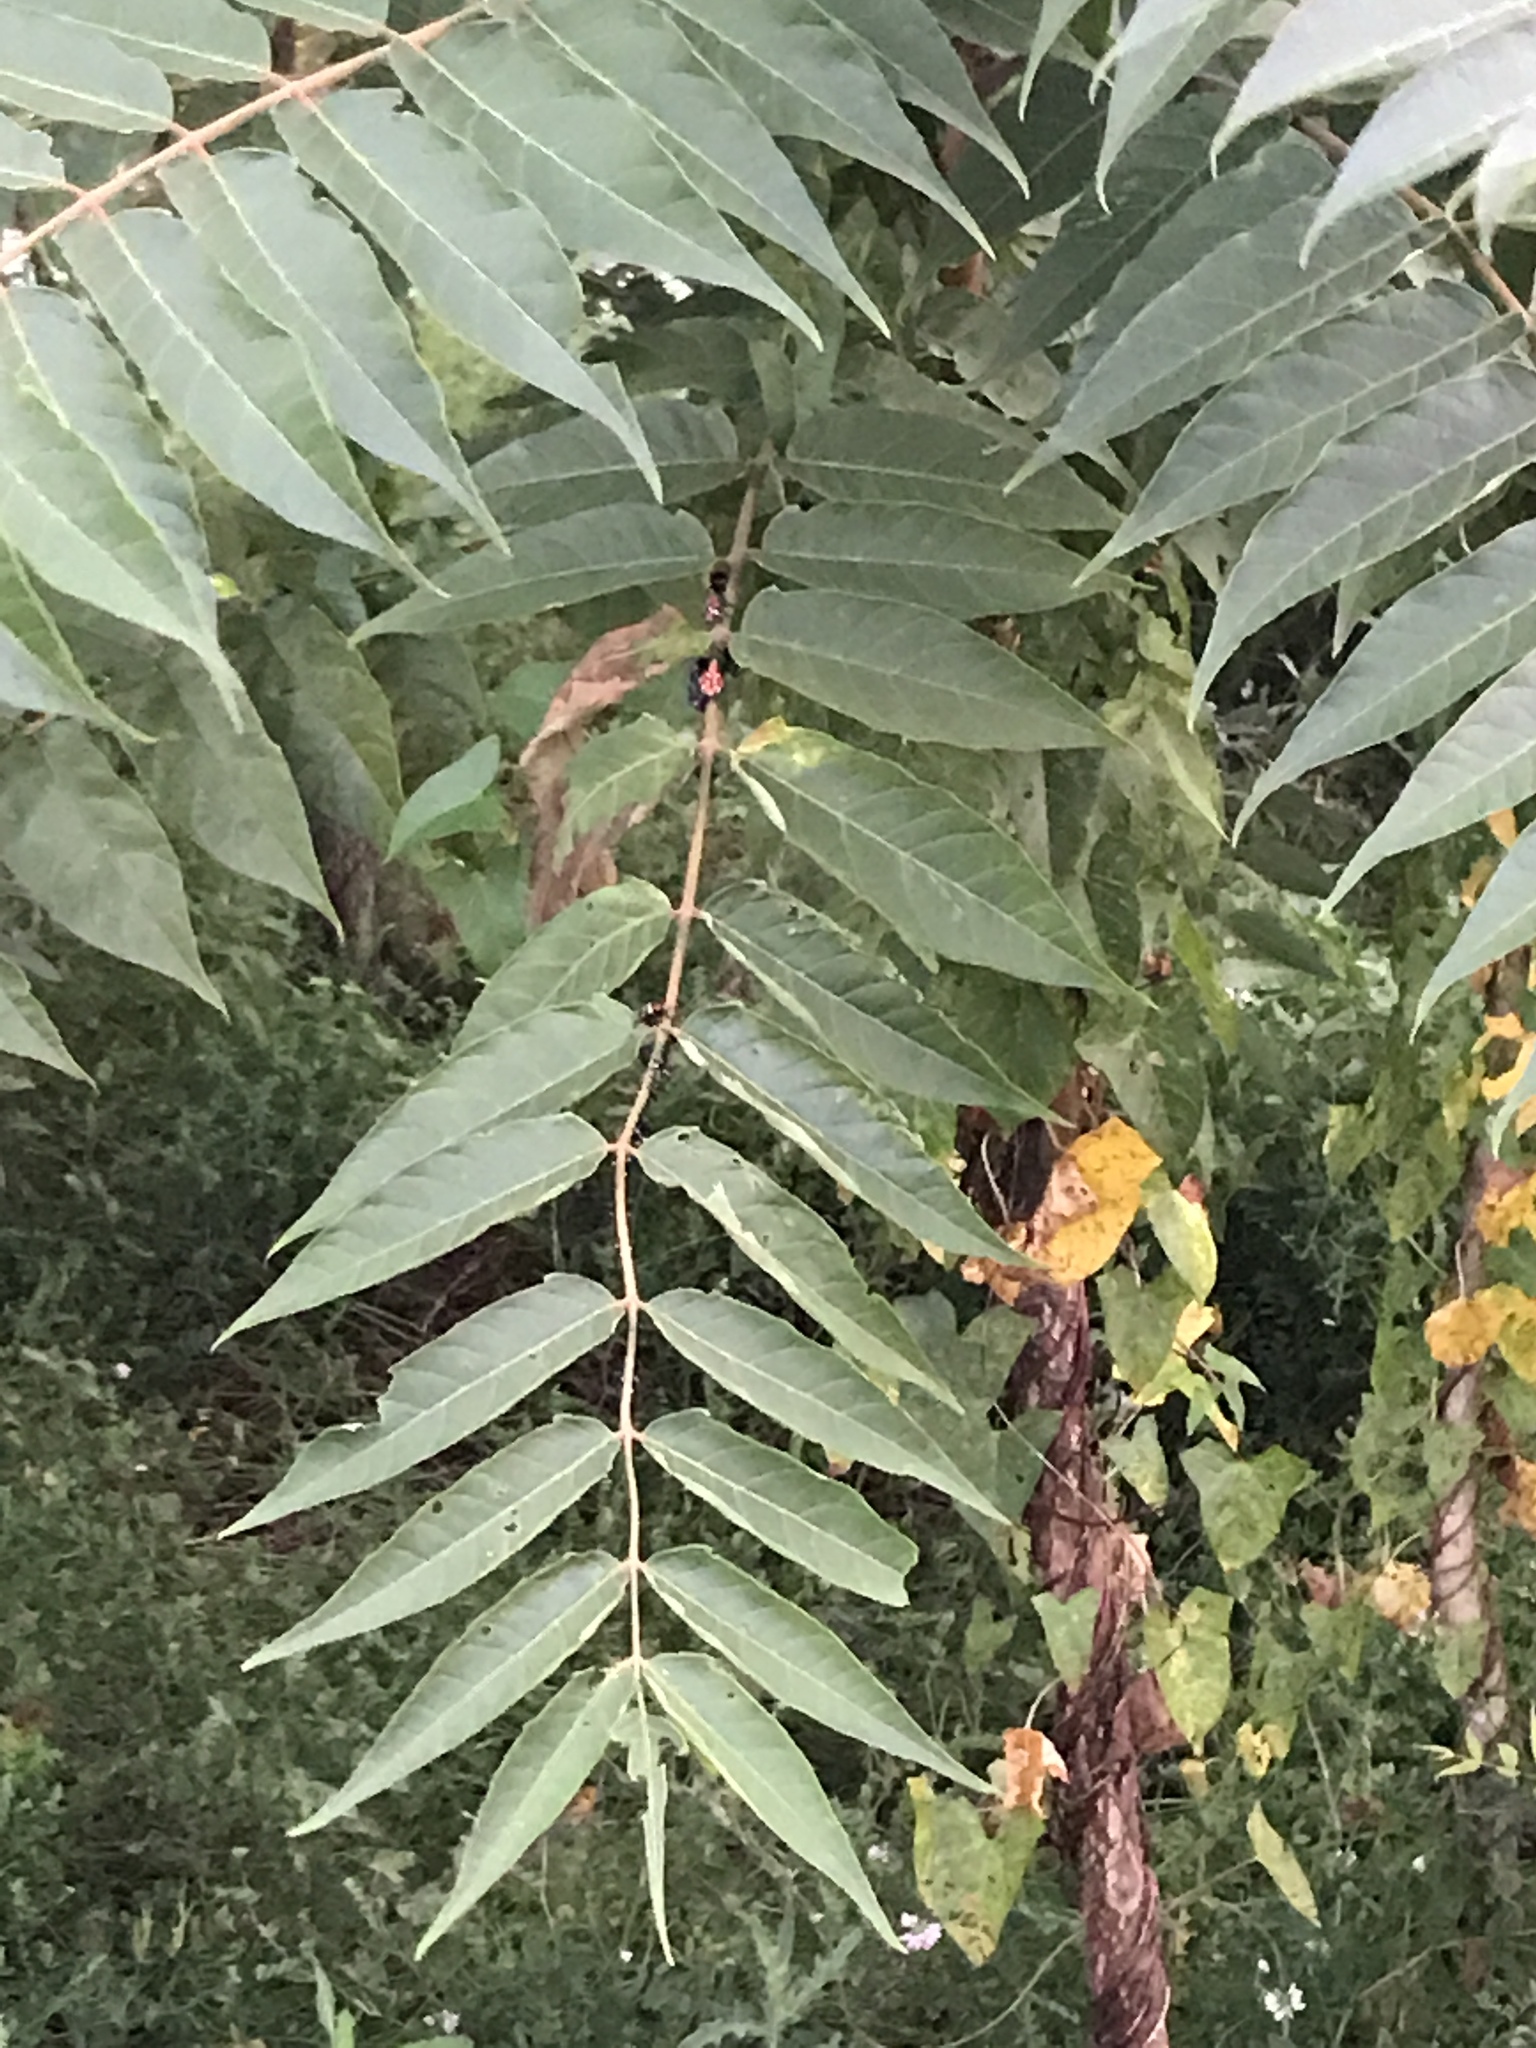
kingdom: Plantae
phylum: Tracheophyta
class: Magnoliopsida
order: Sapindales
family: Simaroubaceae
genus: Ailanthus
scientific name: Ailanthus altissima
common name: Tree-of-heaven
